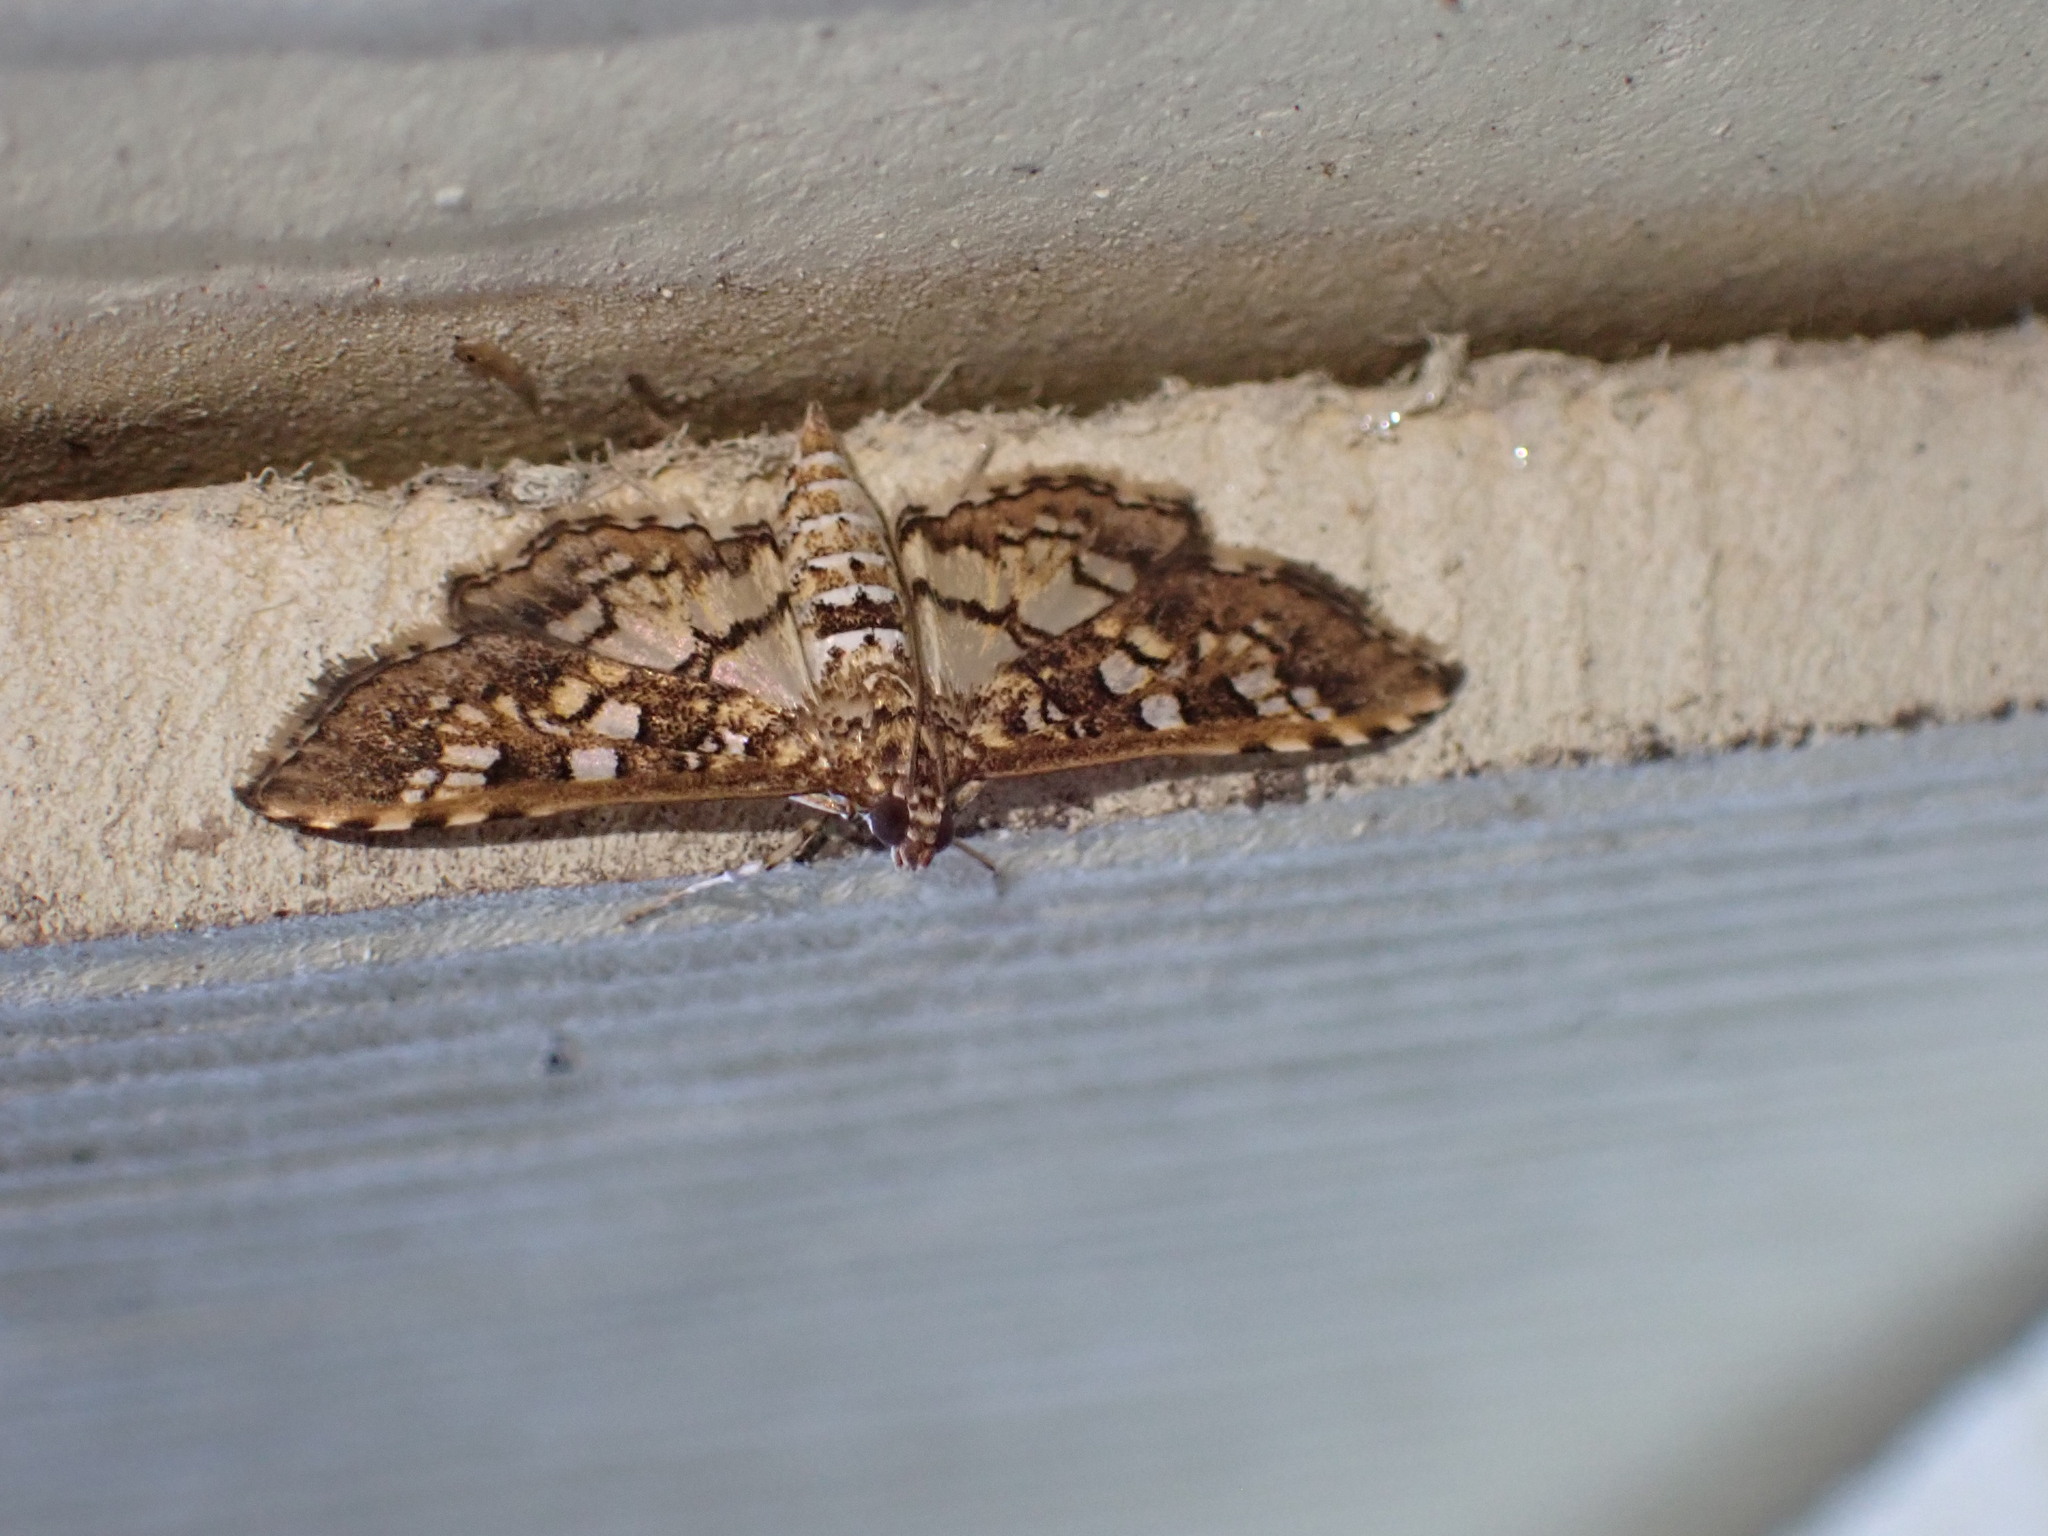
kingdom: Animalia
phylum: Arthropoda
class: Insecta
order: Lepidoptera
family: Crambidae
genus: Samea
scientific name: Samea ecclesialis
